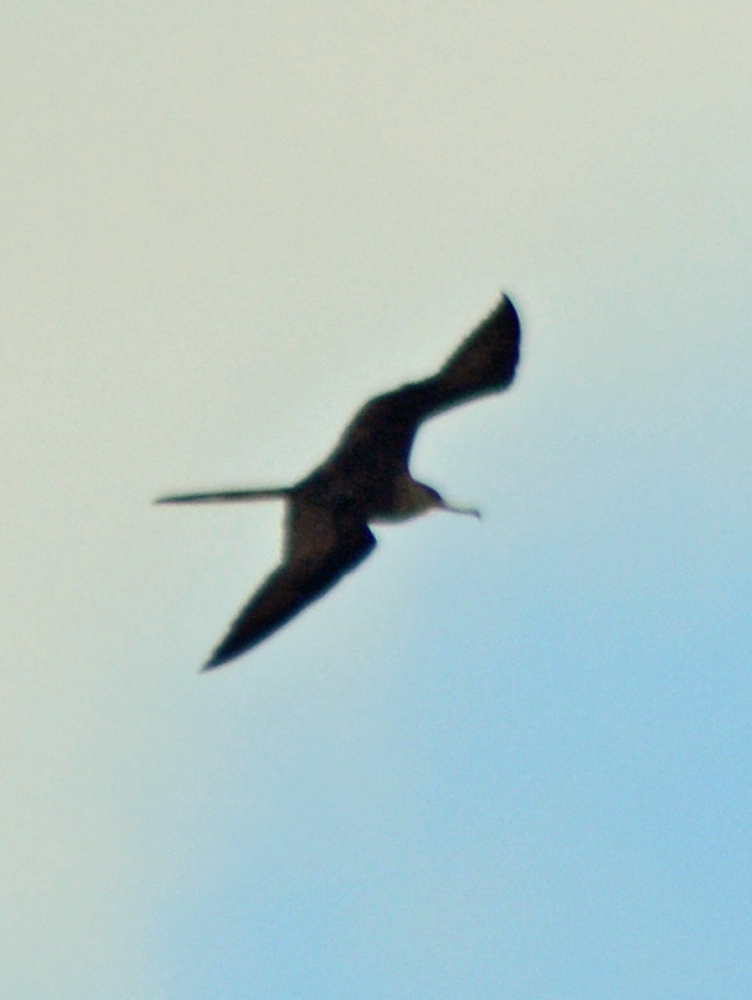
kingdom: Animalia
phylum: Chordata
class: Aves
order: Suliformes
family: Fregatidae
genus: Fregata
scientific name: Fregata magnificens
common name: Magnificent frigatebird
